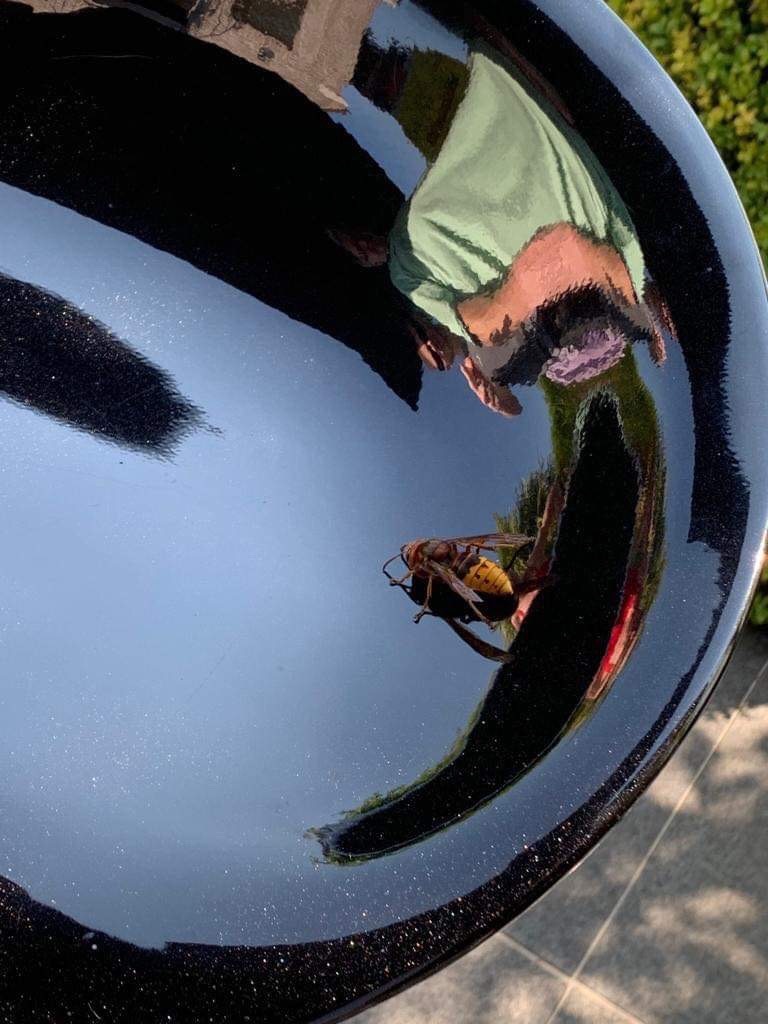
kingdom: Animalia
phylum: Arthropoda
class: Insecta
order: Hymenoptera
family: Vespidae
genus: Vespa
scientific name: Vespa crabro
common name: Hornet
